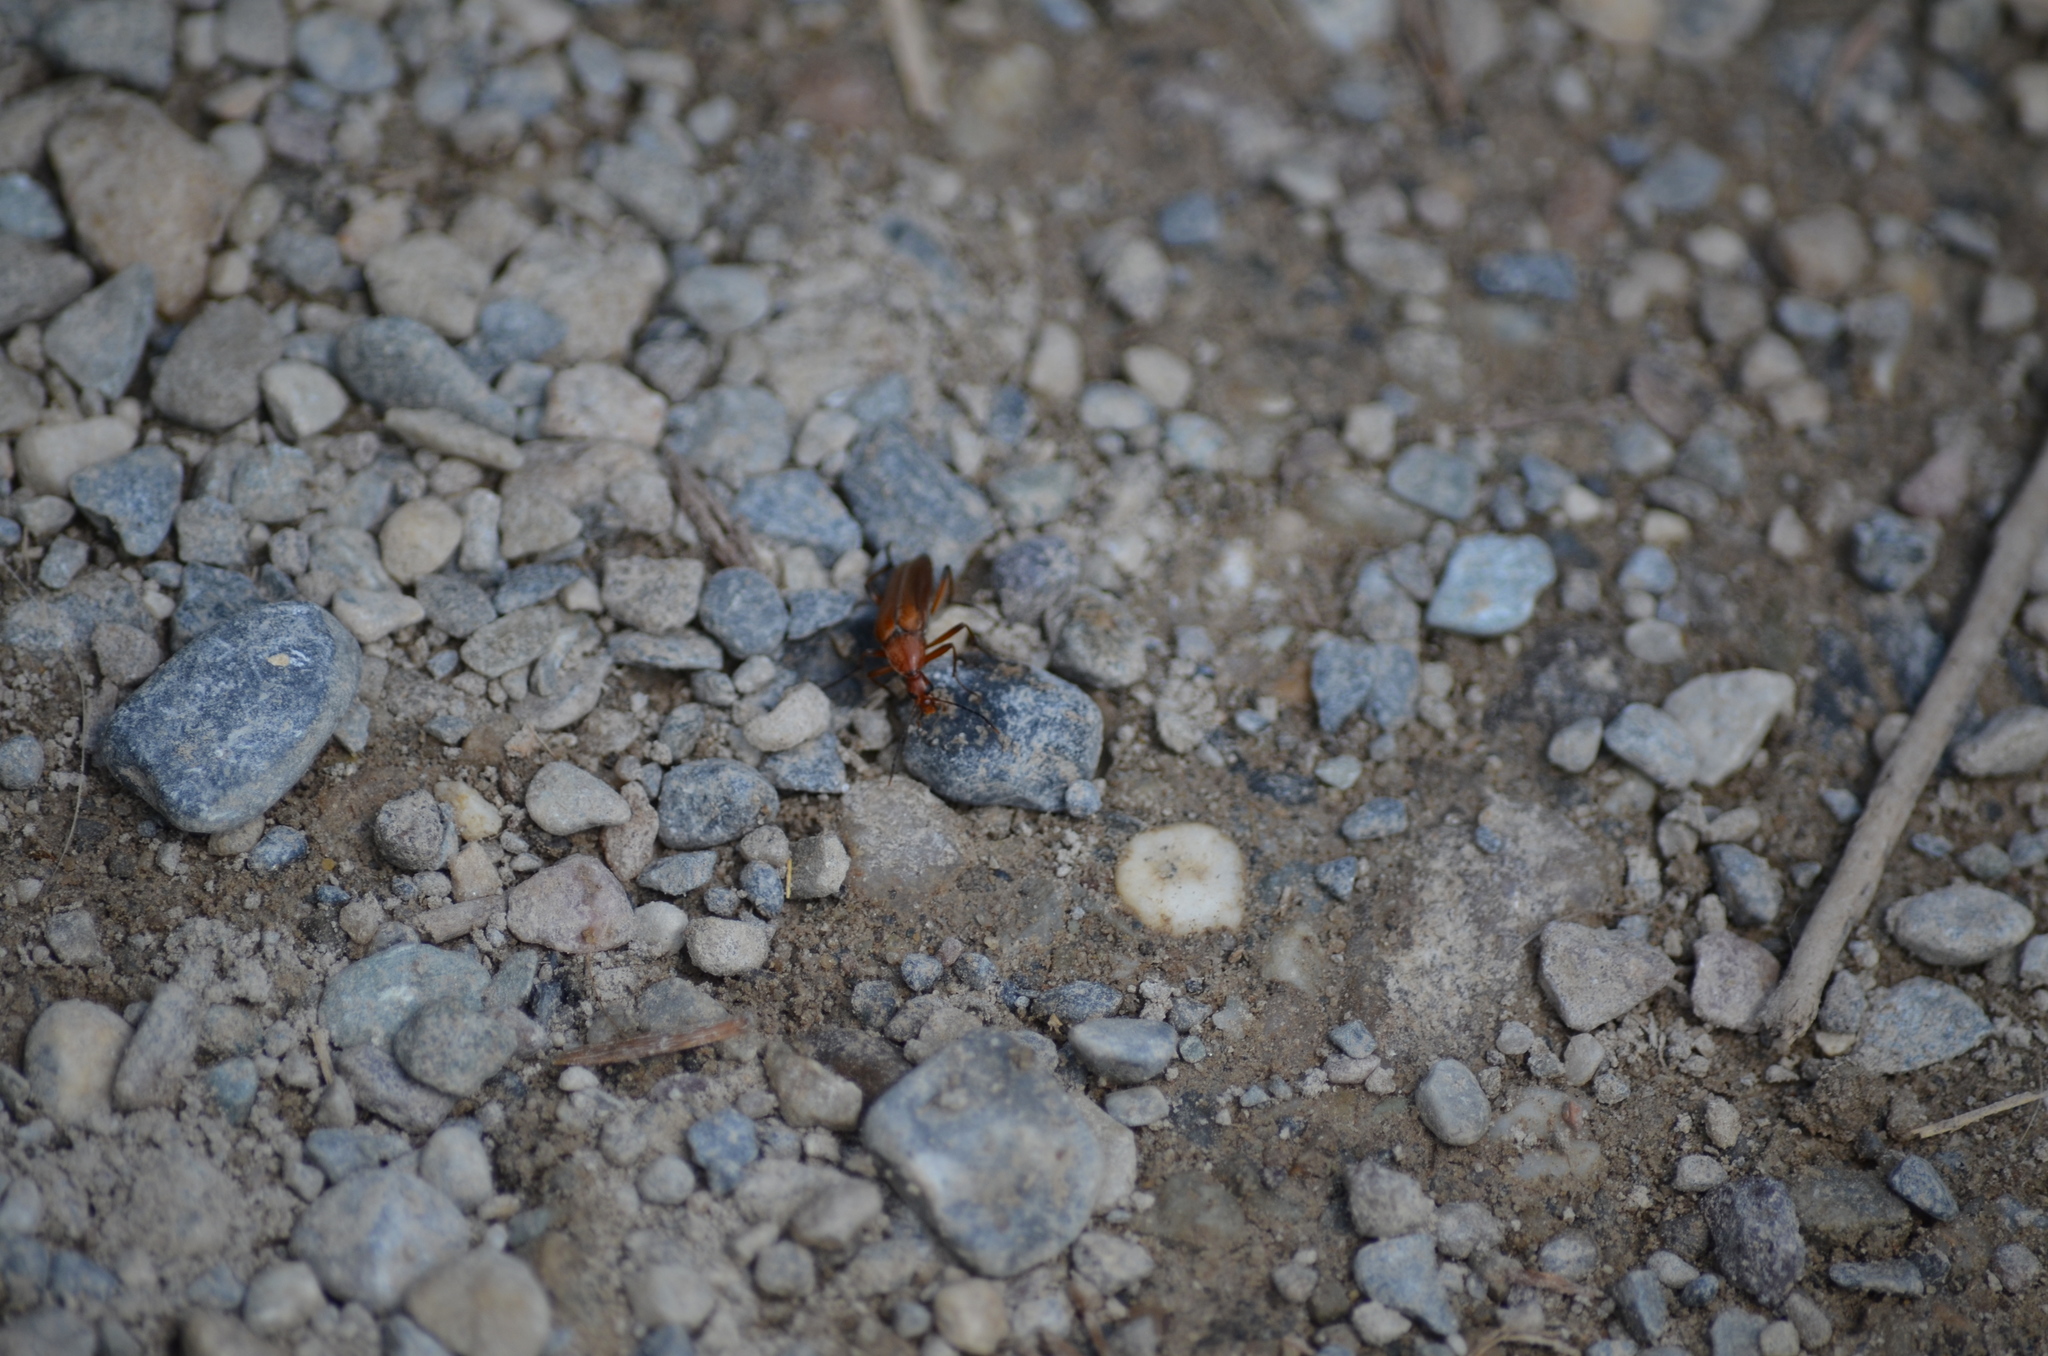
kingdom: Animalia
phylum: Arthropoda
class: Insecta
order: Coleoptera
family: Stenotrachelidae
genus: Cephaloon
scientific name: Cephaloon tenuicorne
